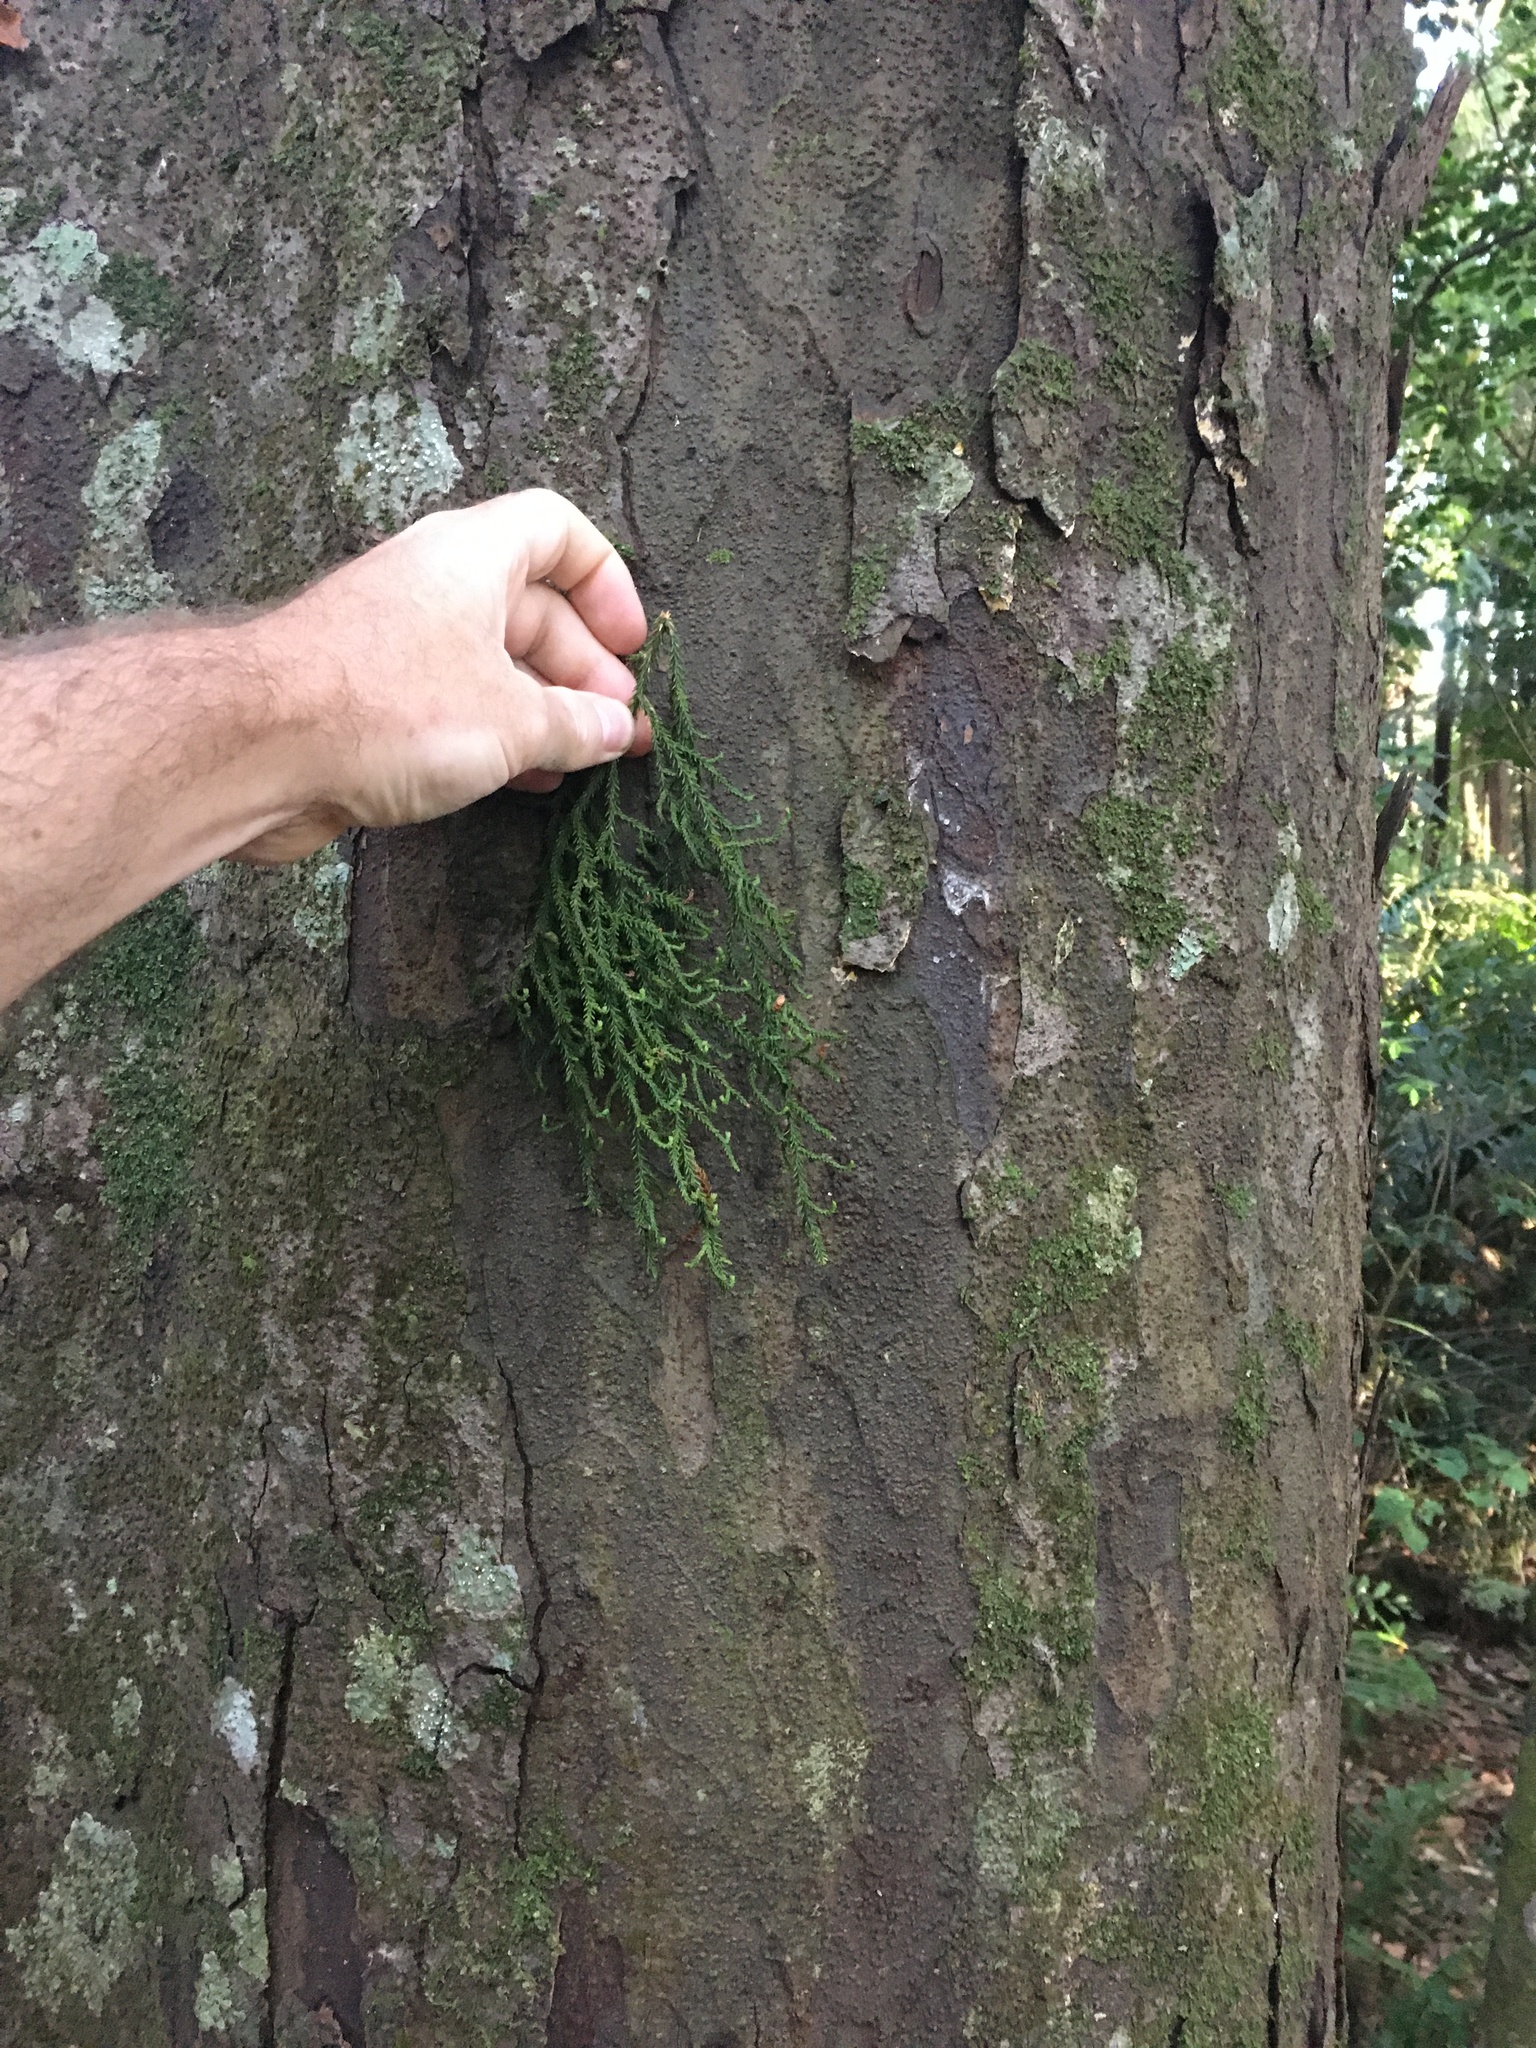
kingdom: Plantae
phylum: Tracheophyta
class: Pinopsida
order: Pinales
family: Podocarpaceae
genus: Dacrydium
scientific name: Dacrydium cupressinum
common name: Red pine
